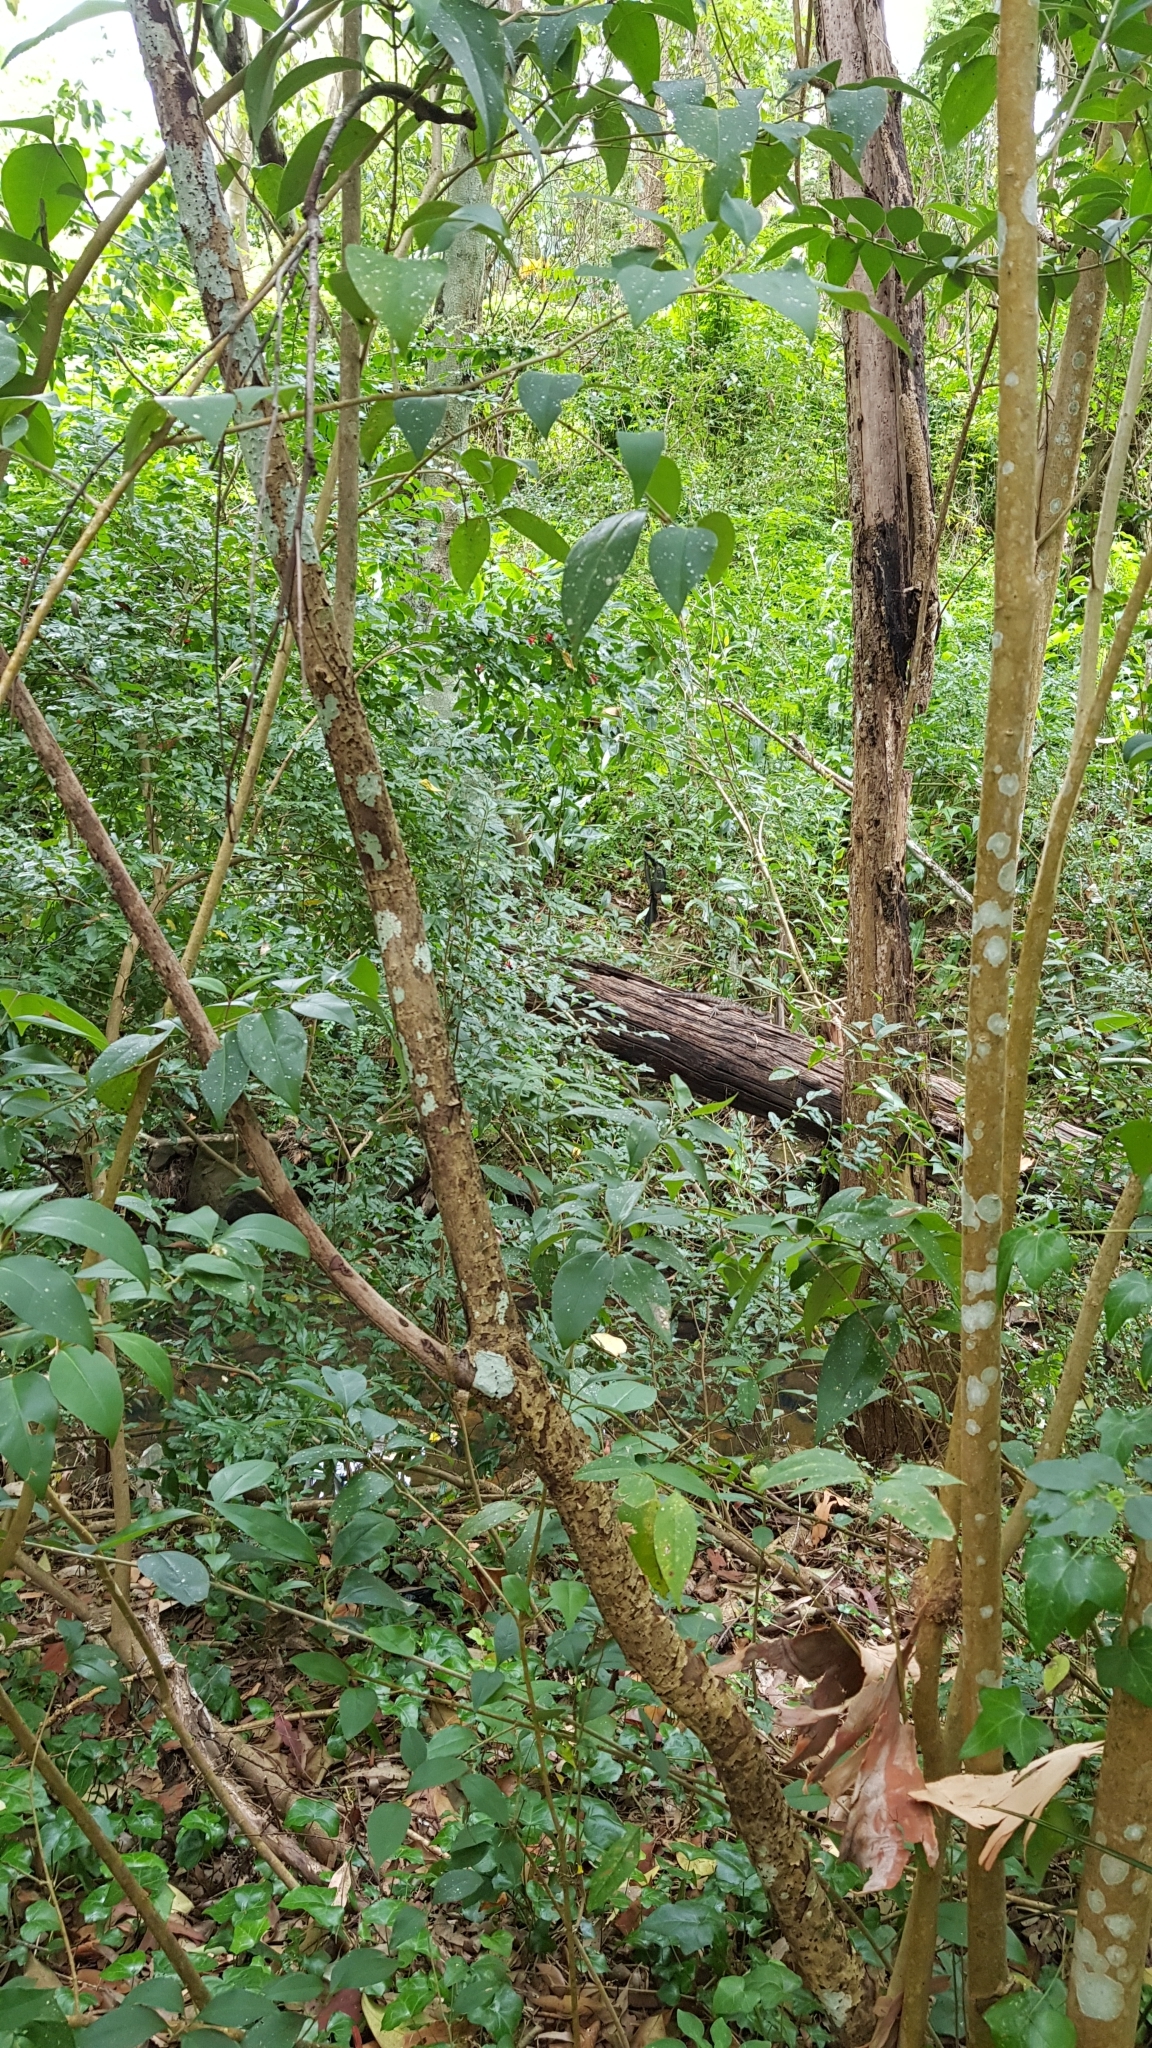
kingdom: Animalia
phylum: Chordata
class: Squamata
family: Agamidae
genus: Intellagama
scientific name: Intellagama lesueurii
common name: Eastern water dragon
